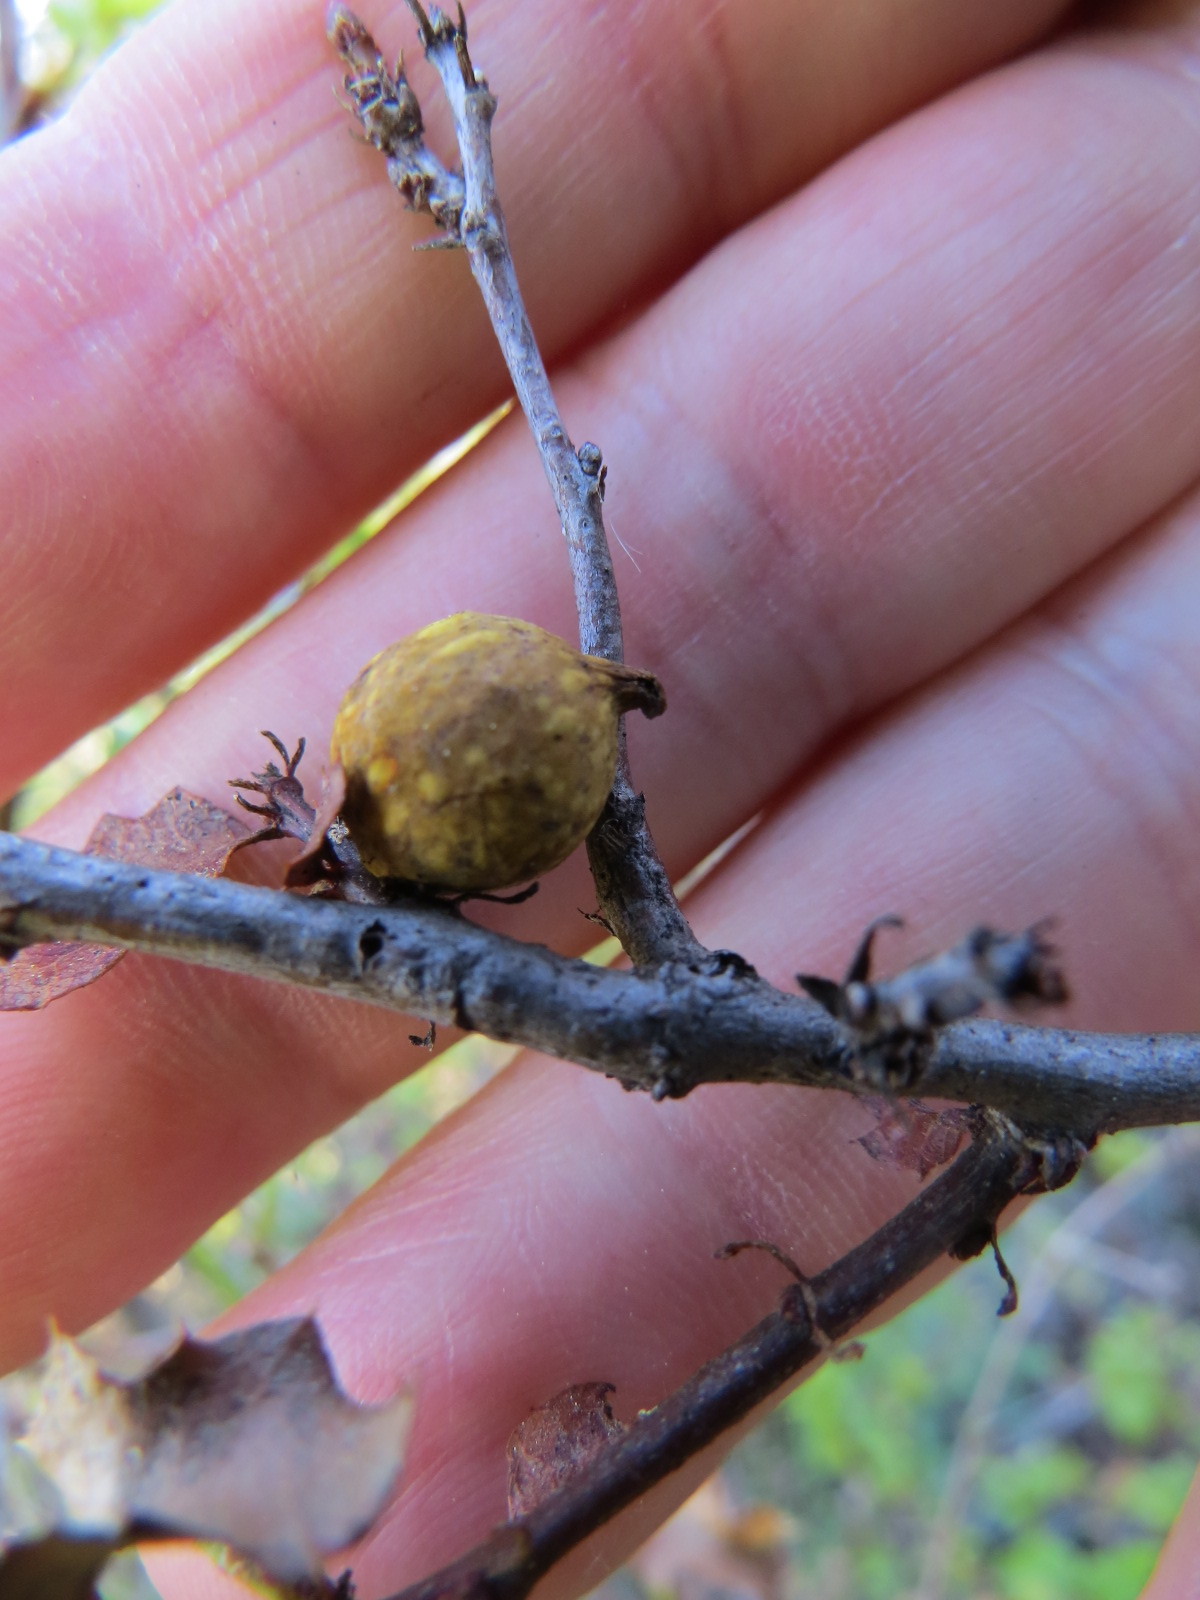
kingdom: Animalia
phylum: Arthropoda
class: Insecta
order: Hymenoptera
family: Cynipidae
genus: Burnettweldia
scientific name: Burnettweldia
